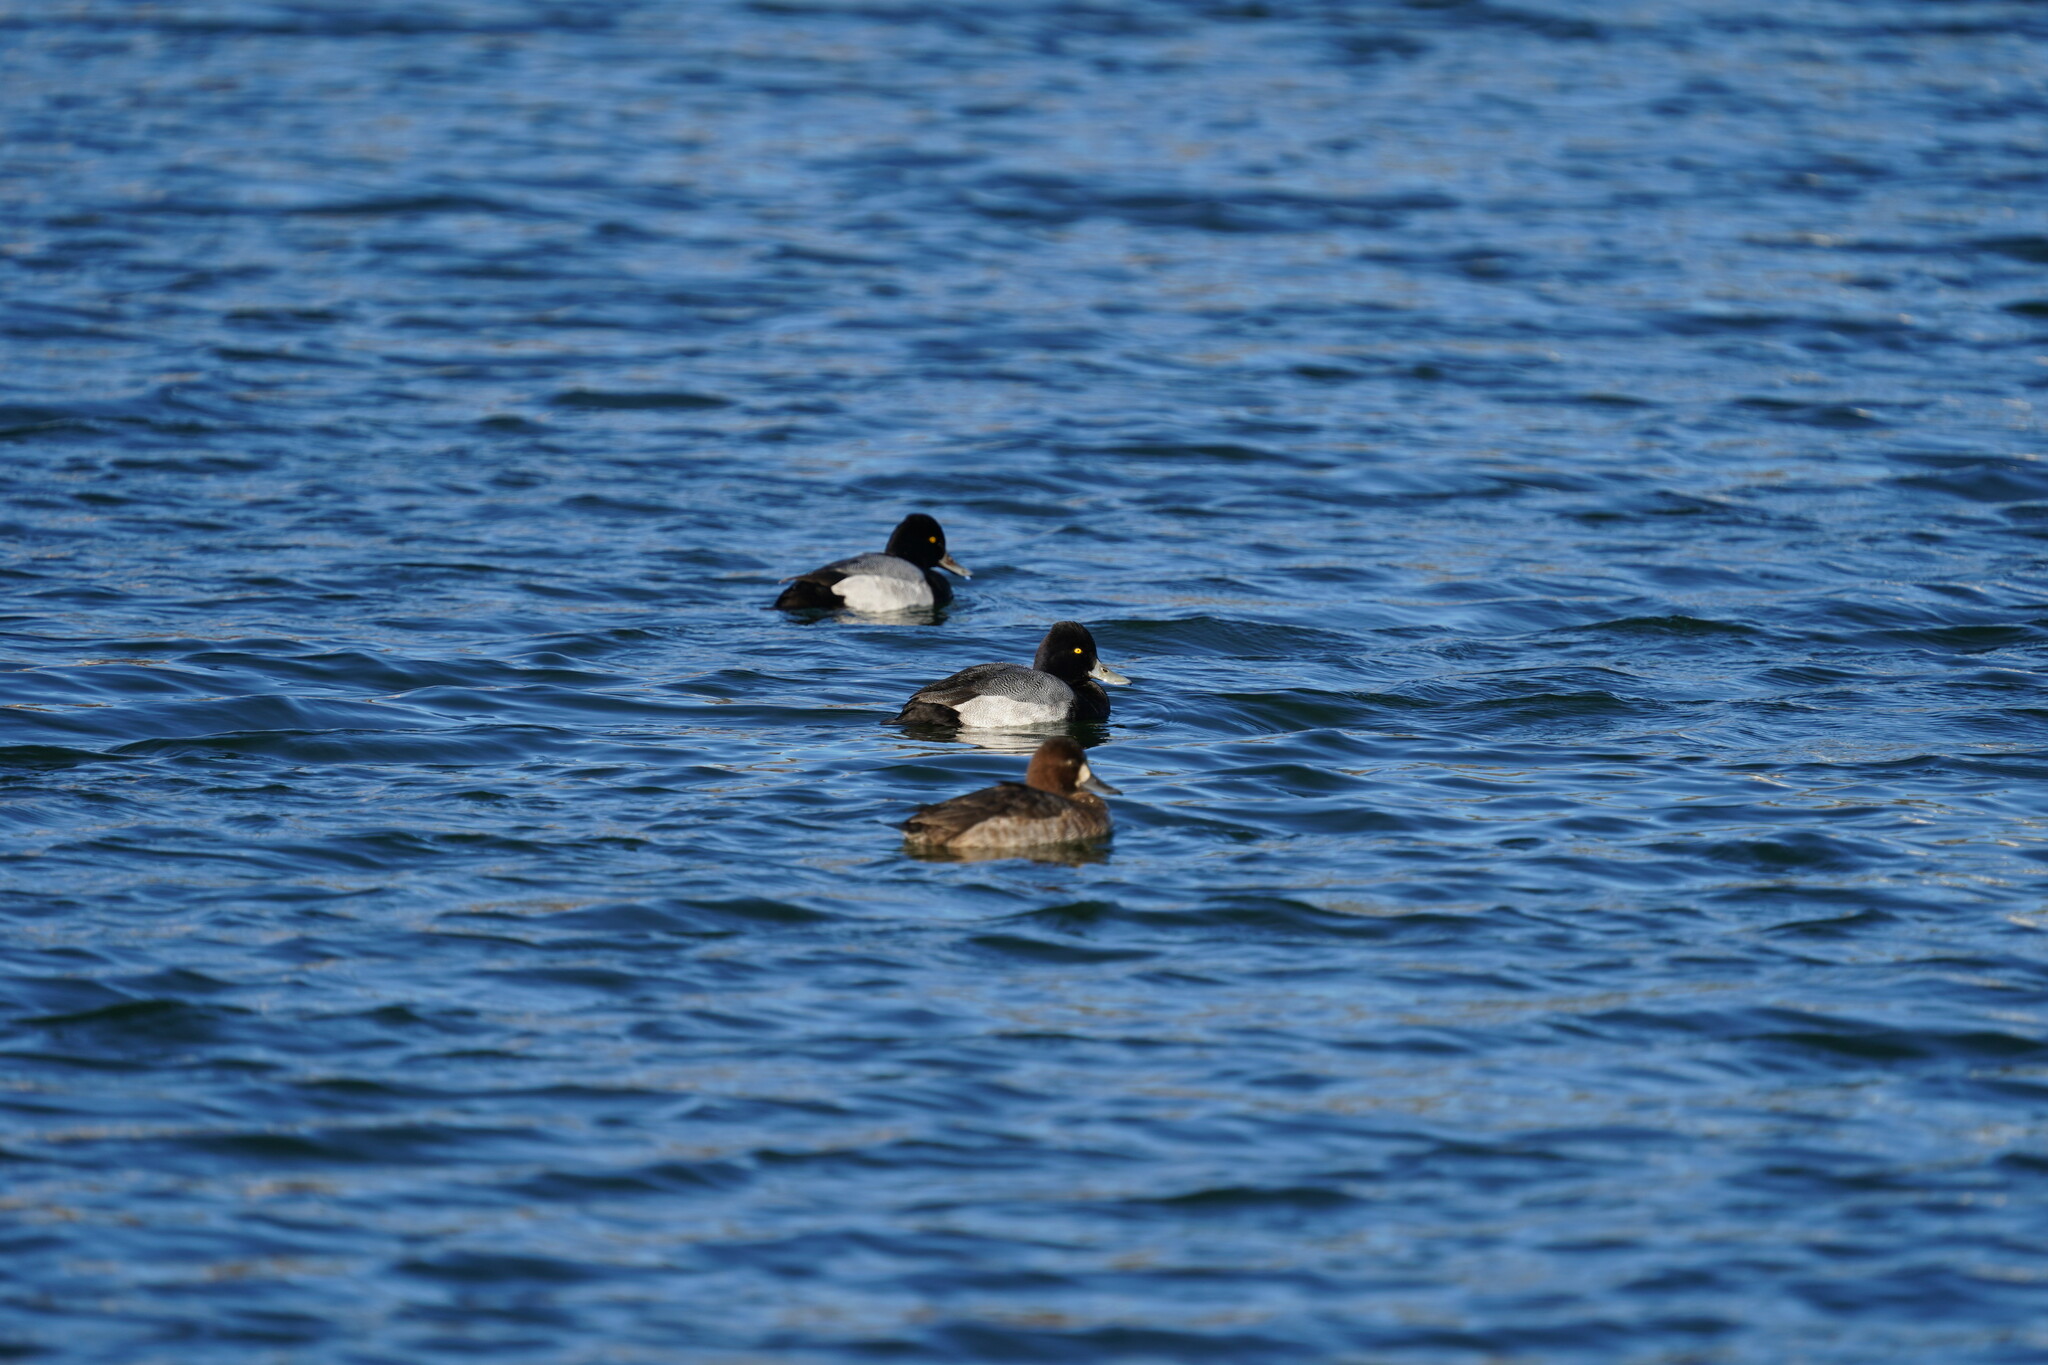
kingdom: Animalia
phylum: Chordata
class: Aves
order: Anseriformes
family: Anatidae
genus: Aythya
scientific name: Aythya affinis
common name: Lesser scaup
